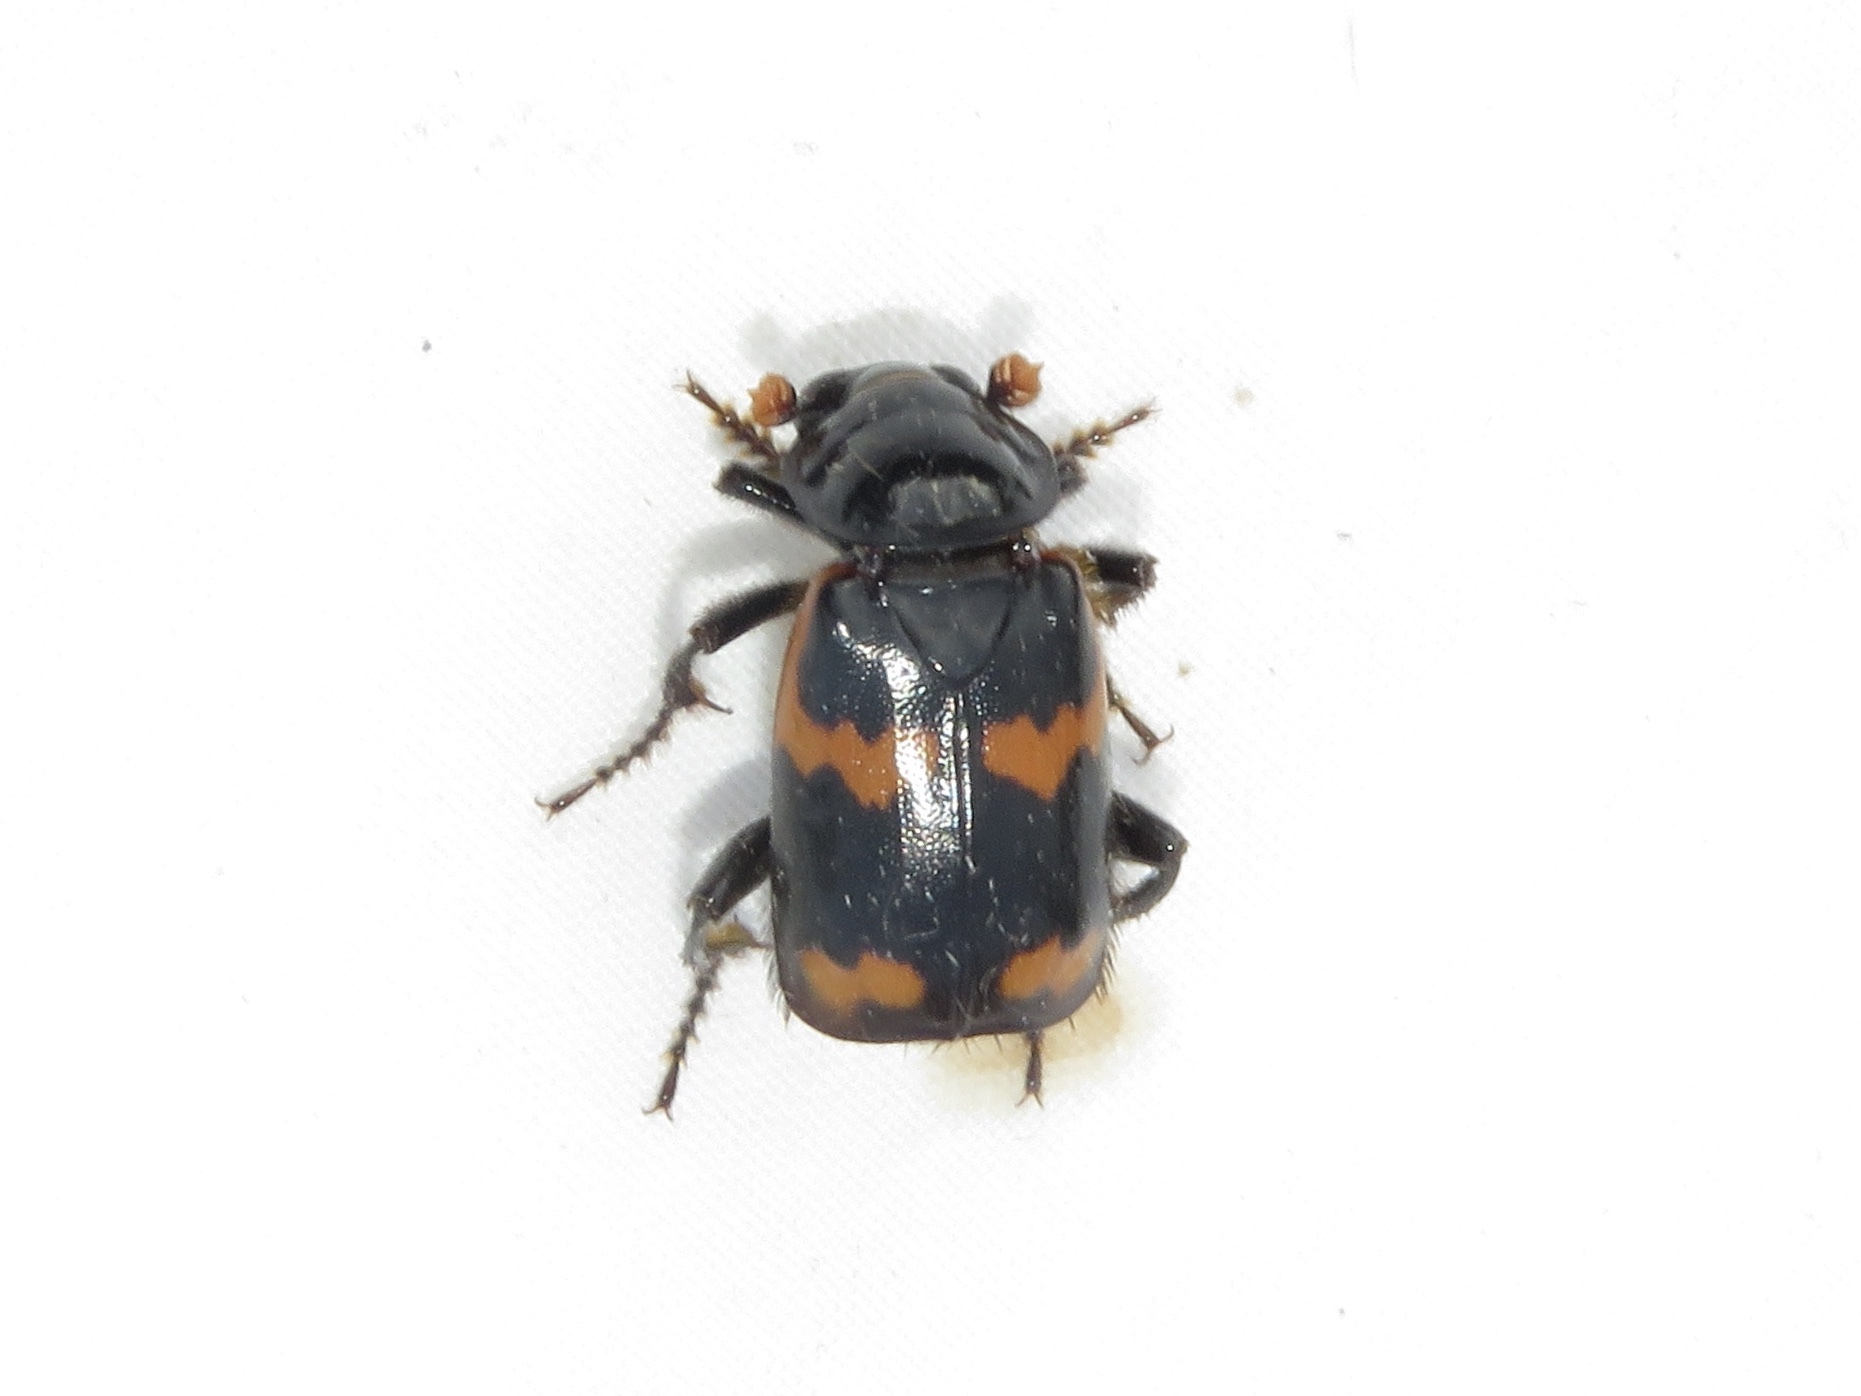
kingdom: Animalia
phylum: Arthropoda
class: Insecta
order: Coleoptera
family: Staphylinidae
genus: Nicrophorus
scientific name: Nicrophorus sayi
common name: Say's burying beetle
